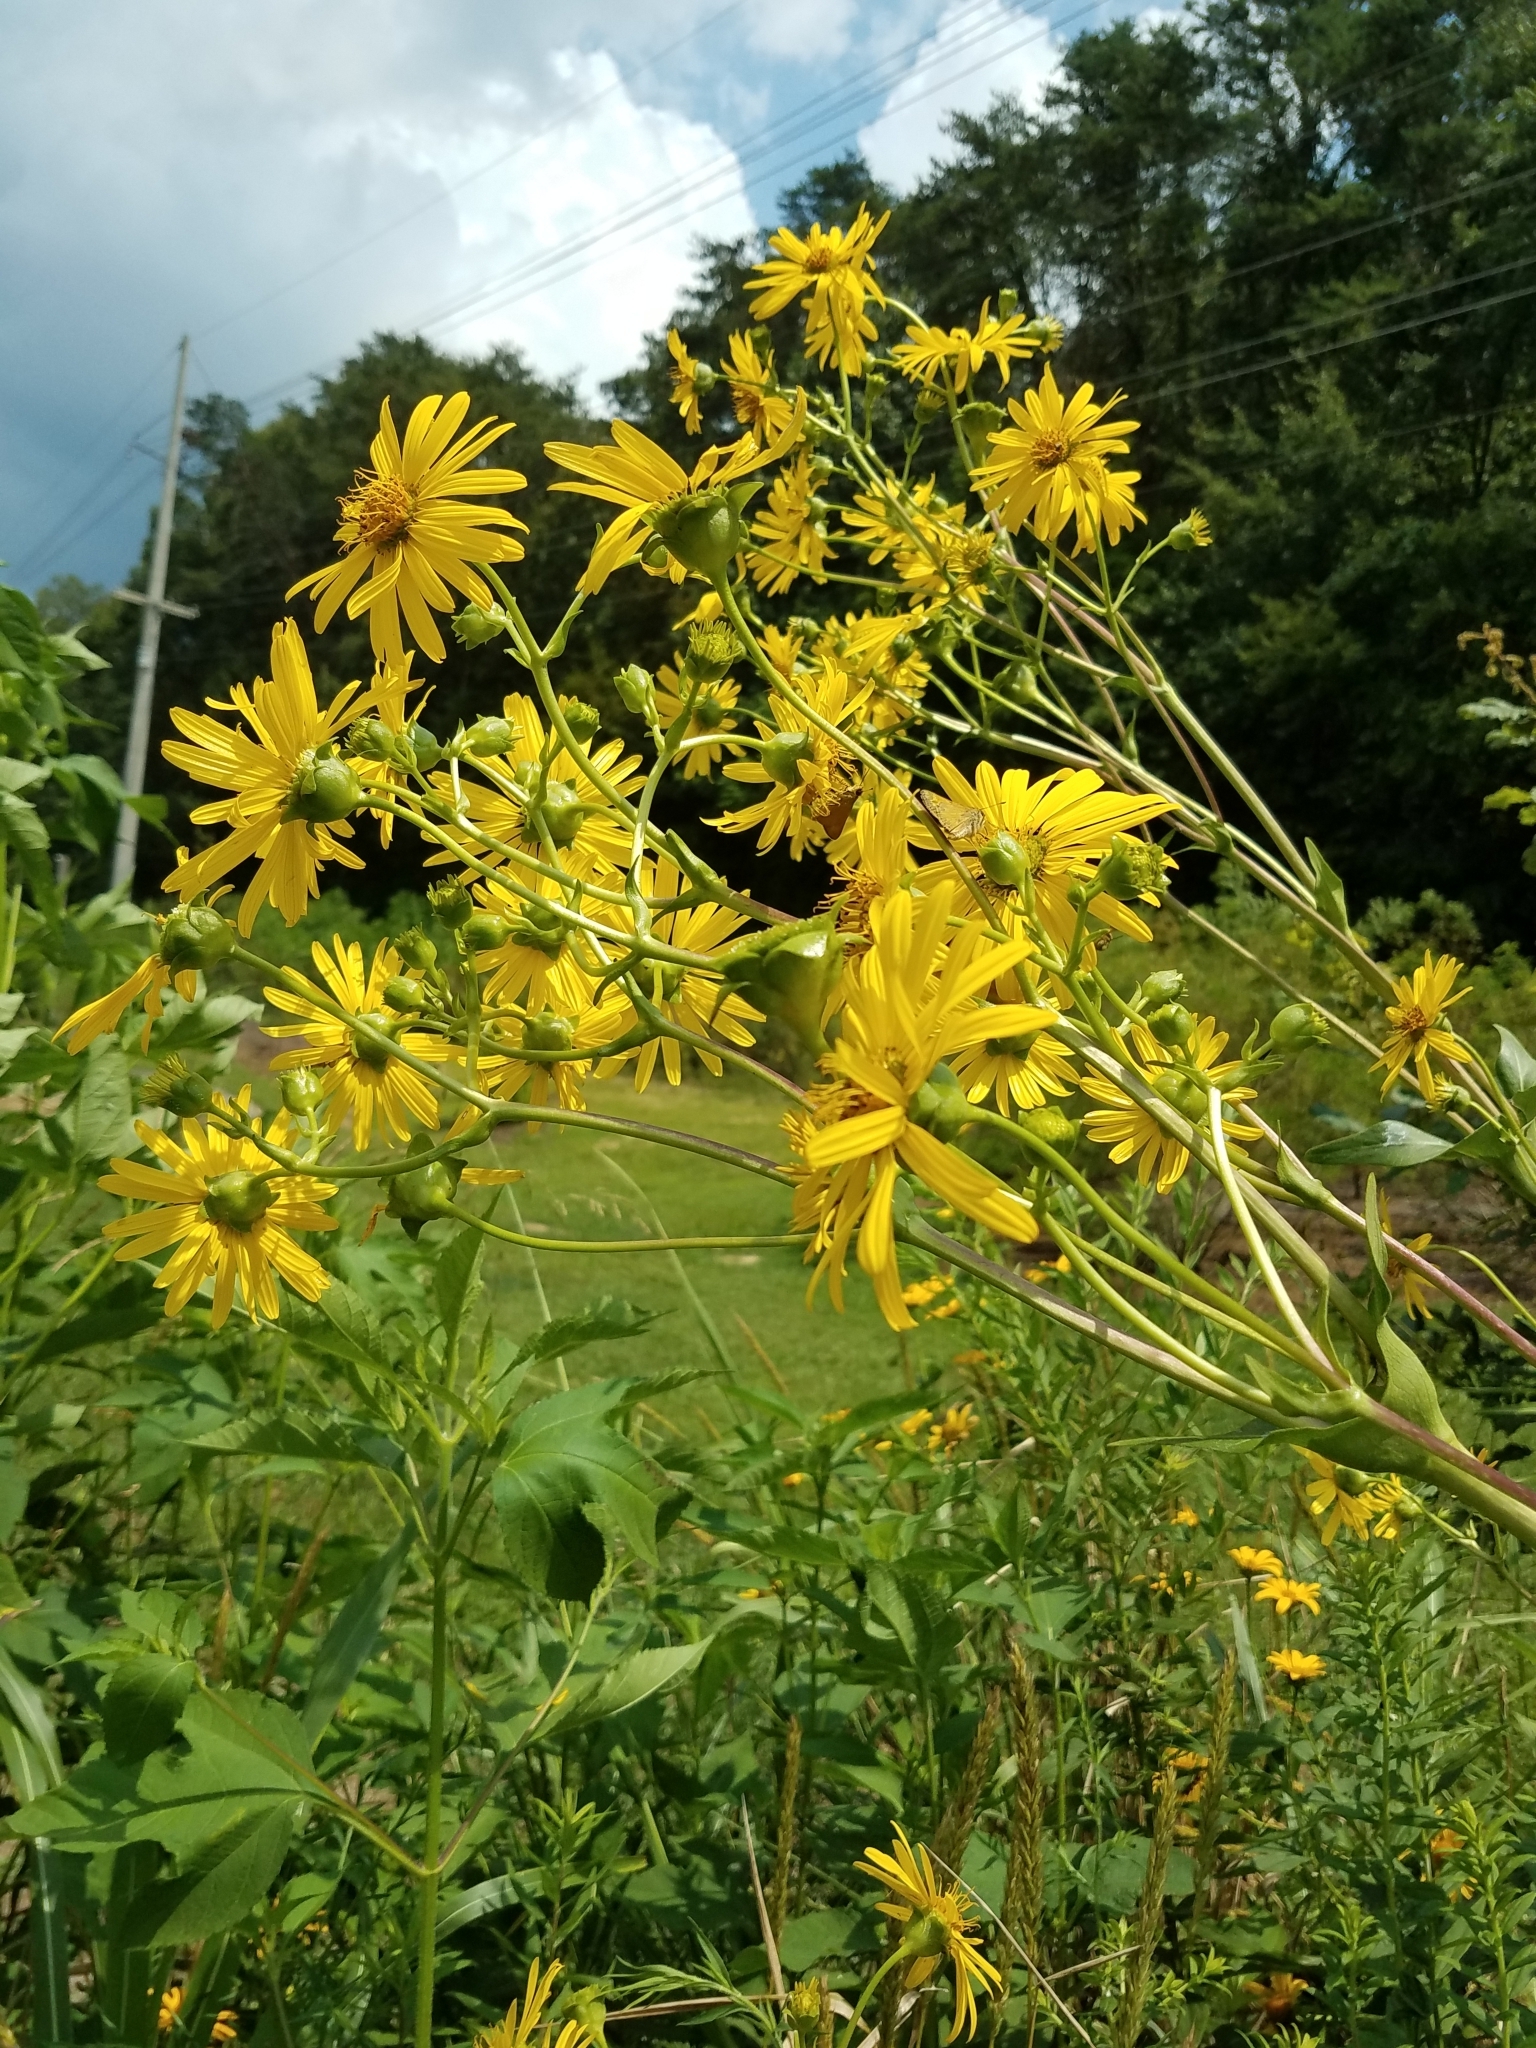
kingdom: Plantae
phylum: Tracheophyta
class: Magnoliopsida
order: Asterales
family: Asteraceae
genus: Silphium
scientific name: Silphium perfoliatum
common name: Cup-plant
